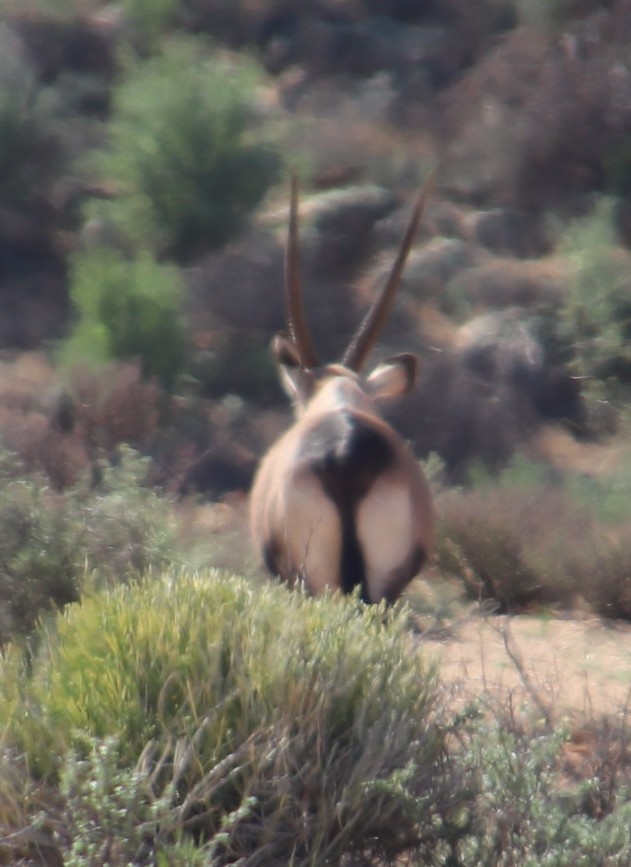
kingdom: Animalia
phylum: Chordata
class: Mammalia
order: Artiodactyla
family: Bovidae
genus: Oryx
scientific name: Oryx gazella
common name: Gemsbok
